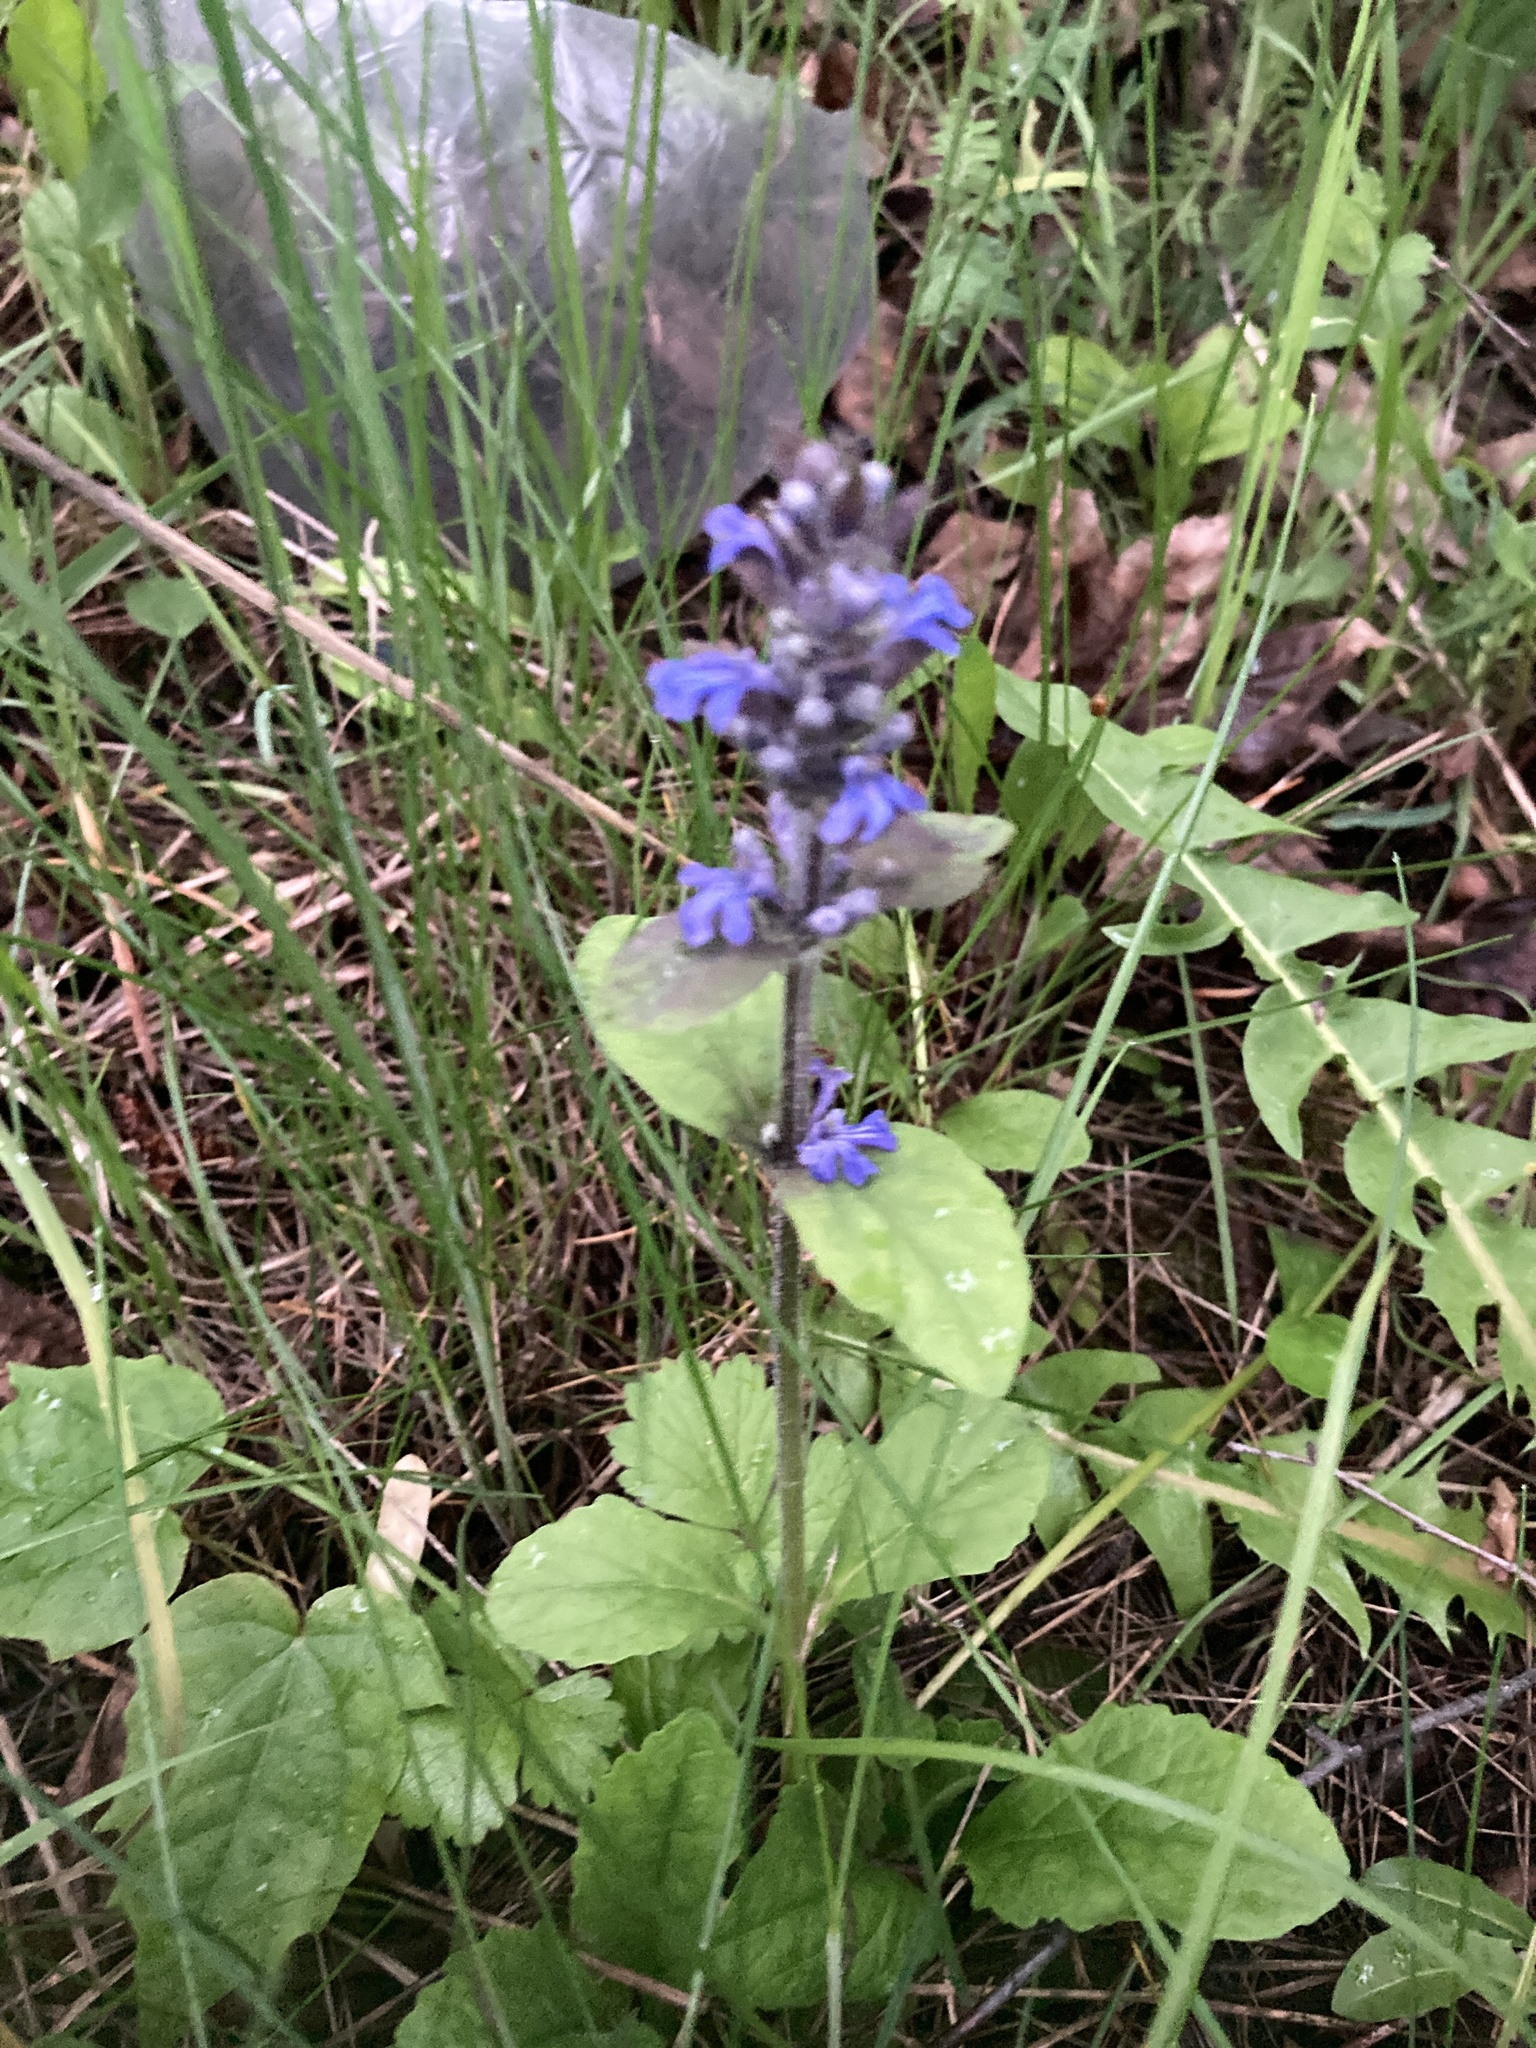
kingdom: Plantae
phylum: Tracheophyta
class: Magnoliopsida
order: Lamiales
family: Lamiaceae
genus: Ajuga
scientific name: Ajuga reptans
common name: Bugle
